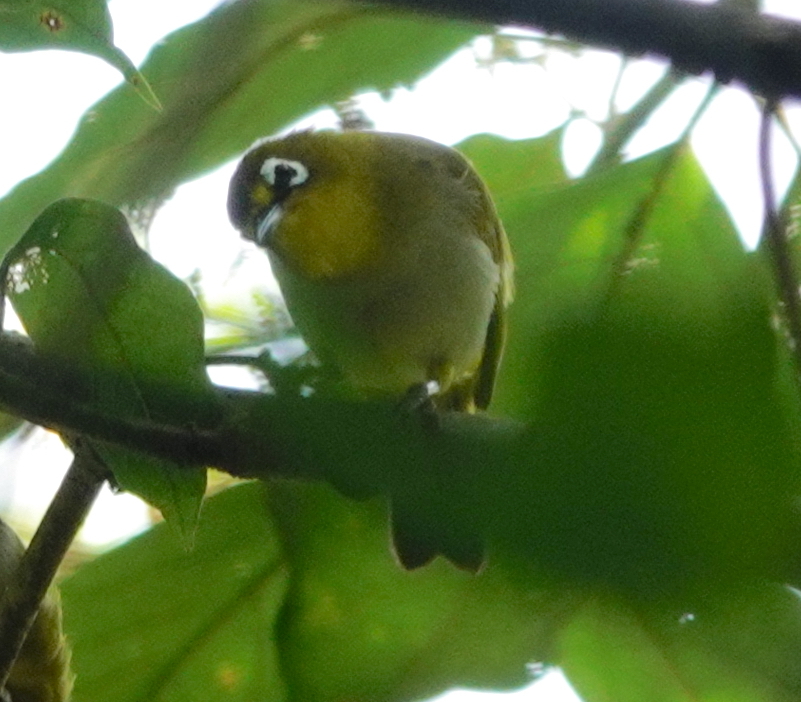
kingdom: Animalia
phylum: Chordata
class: Aves
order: Passeriformes
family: Zosteropidae
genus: Zosterops
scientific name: Zosterops grayi
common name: Pearl-bellied white-eye
